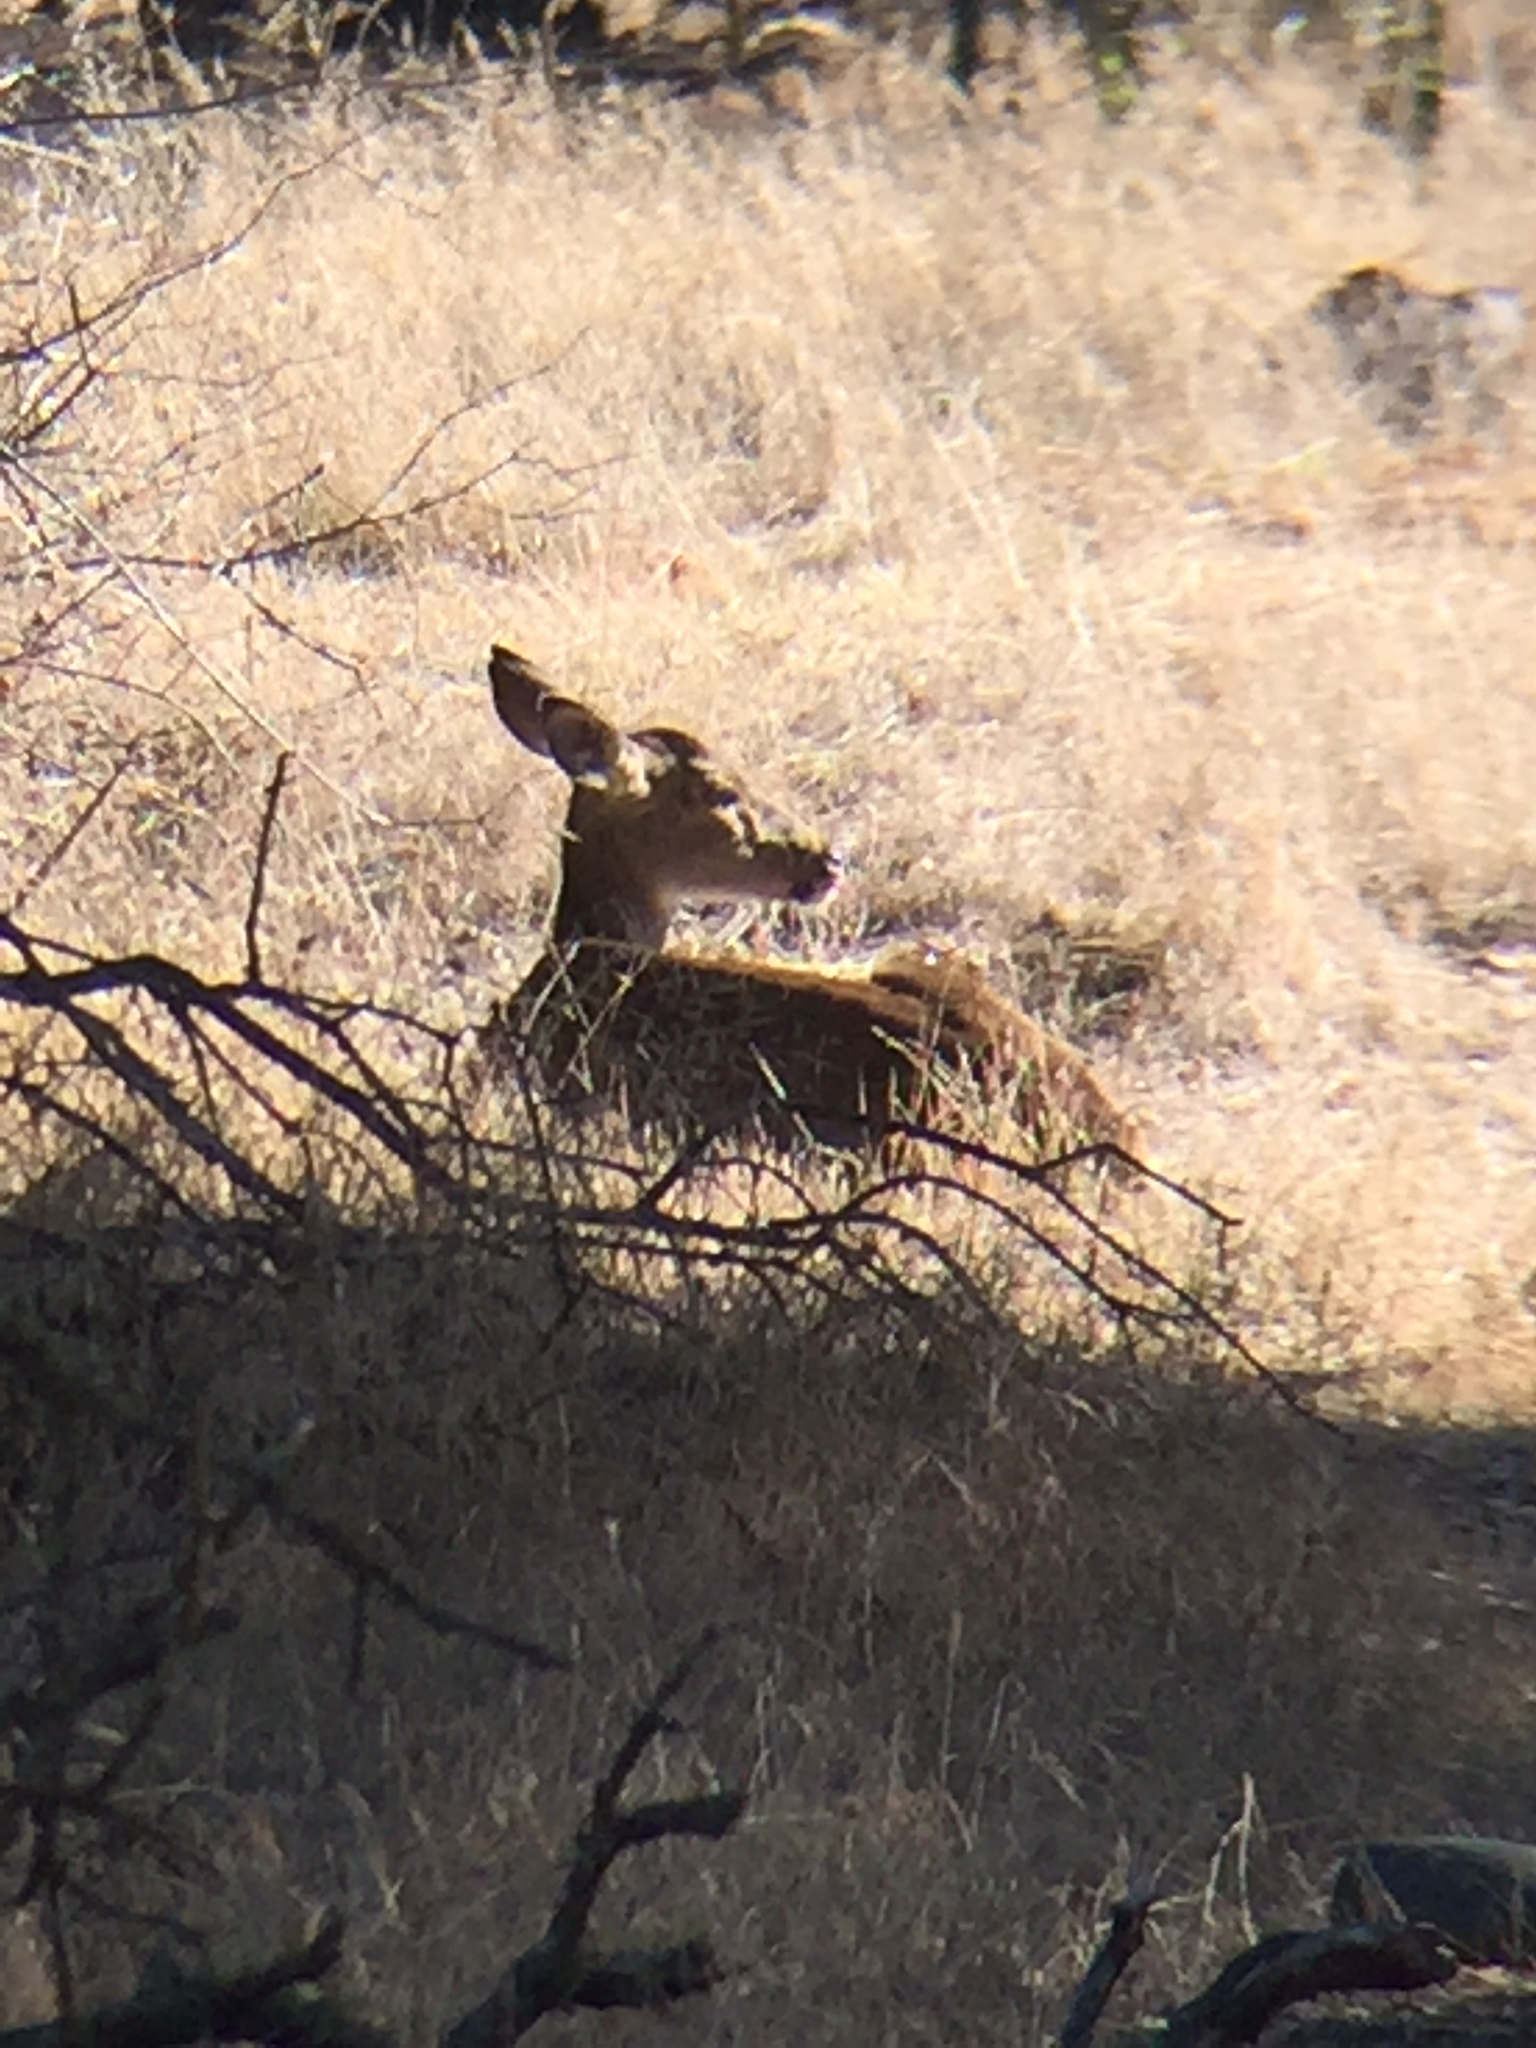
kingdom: Animalia
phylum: Chordata
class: Mammalia
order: Artiodactyla
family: Cervidae
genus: Odocoileus
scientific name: Odocoileus hemionus
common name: Mule deer
